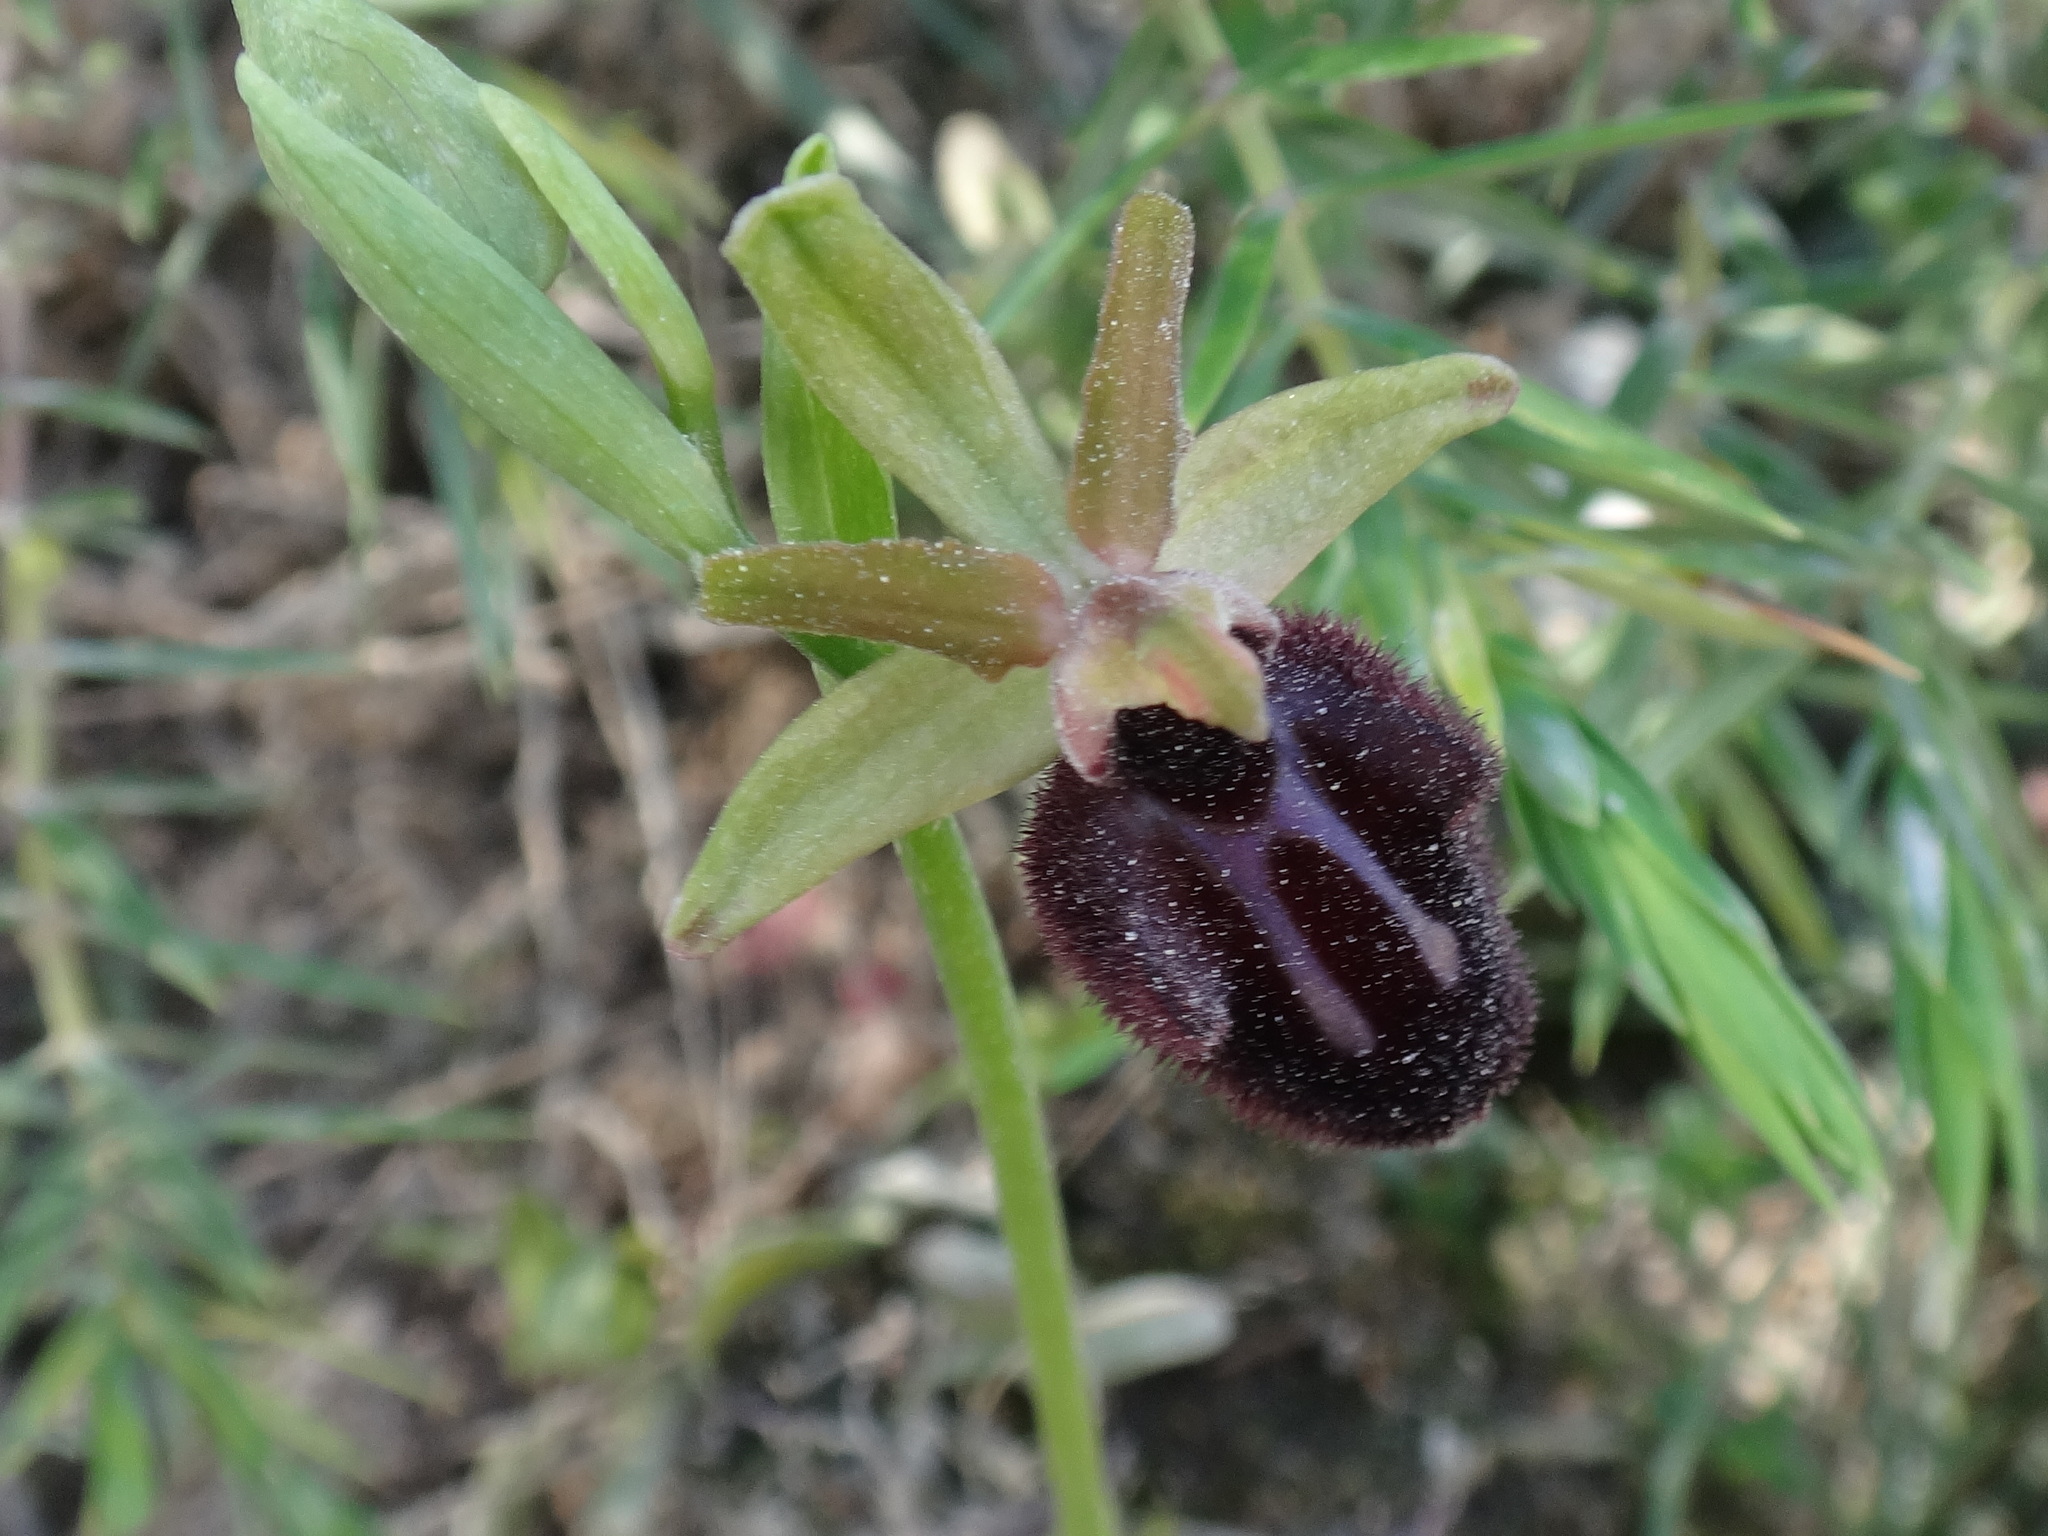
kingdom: Plantae
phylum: Tracheophyta
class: Liliopsida
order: Asparagales
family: Orchidaceae
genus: Ophrys
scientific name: Ophrys sphegodes
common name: Early spider-orchid
